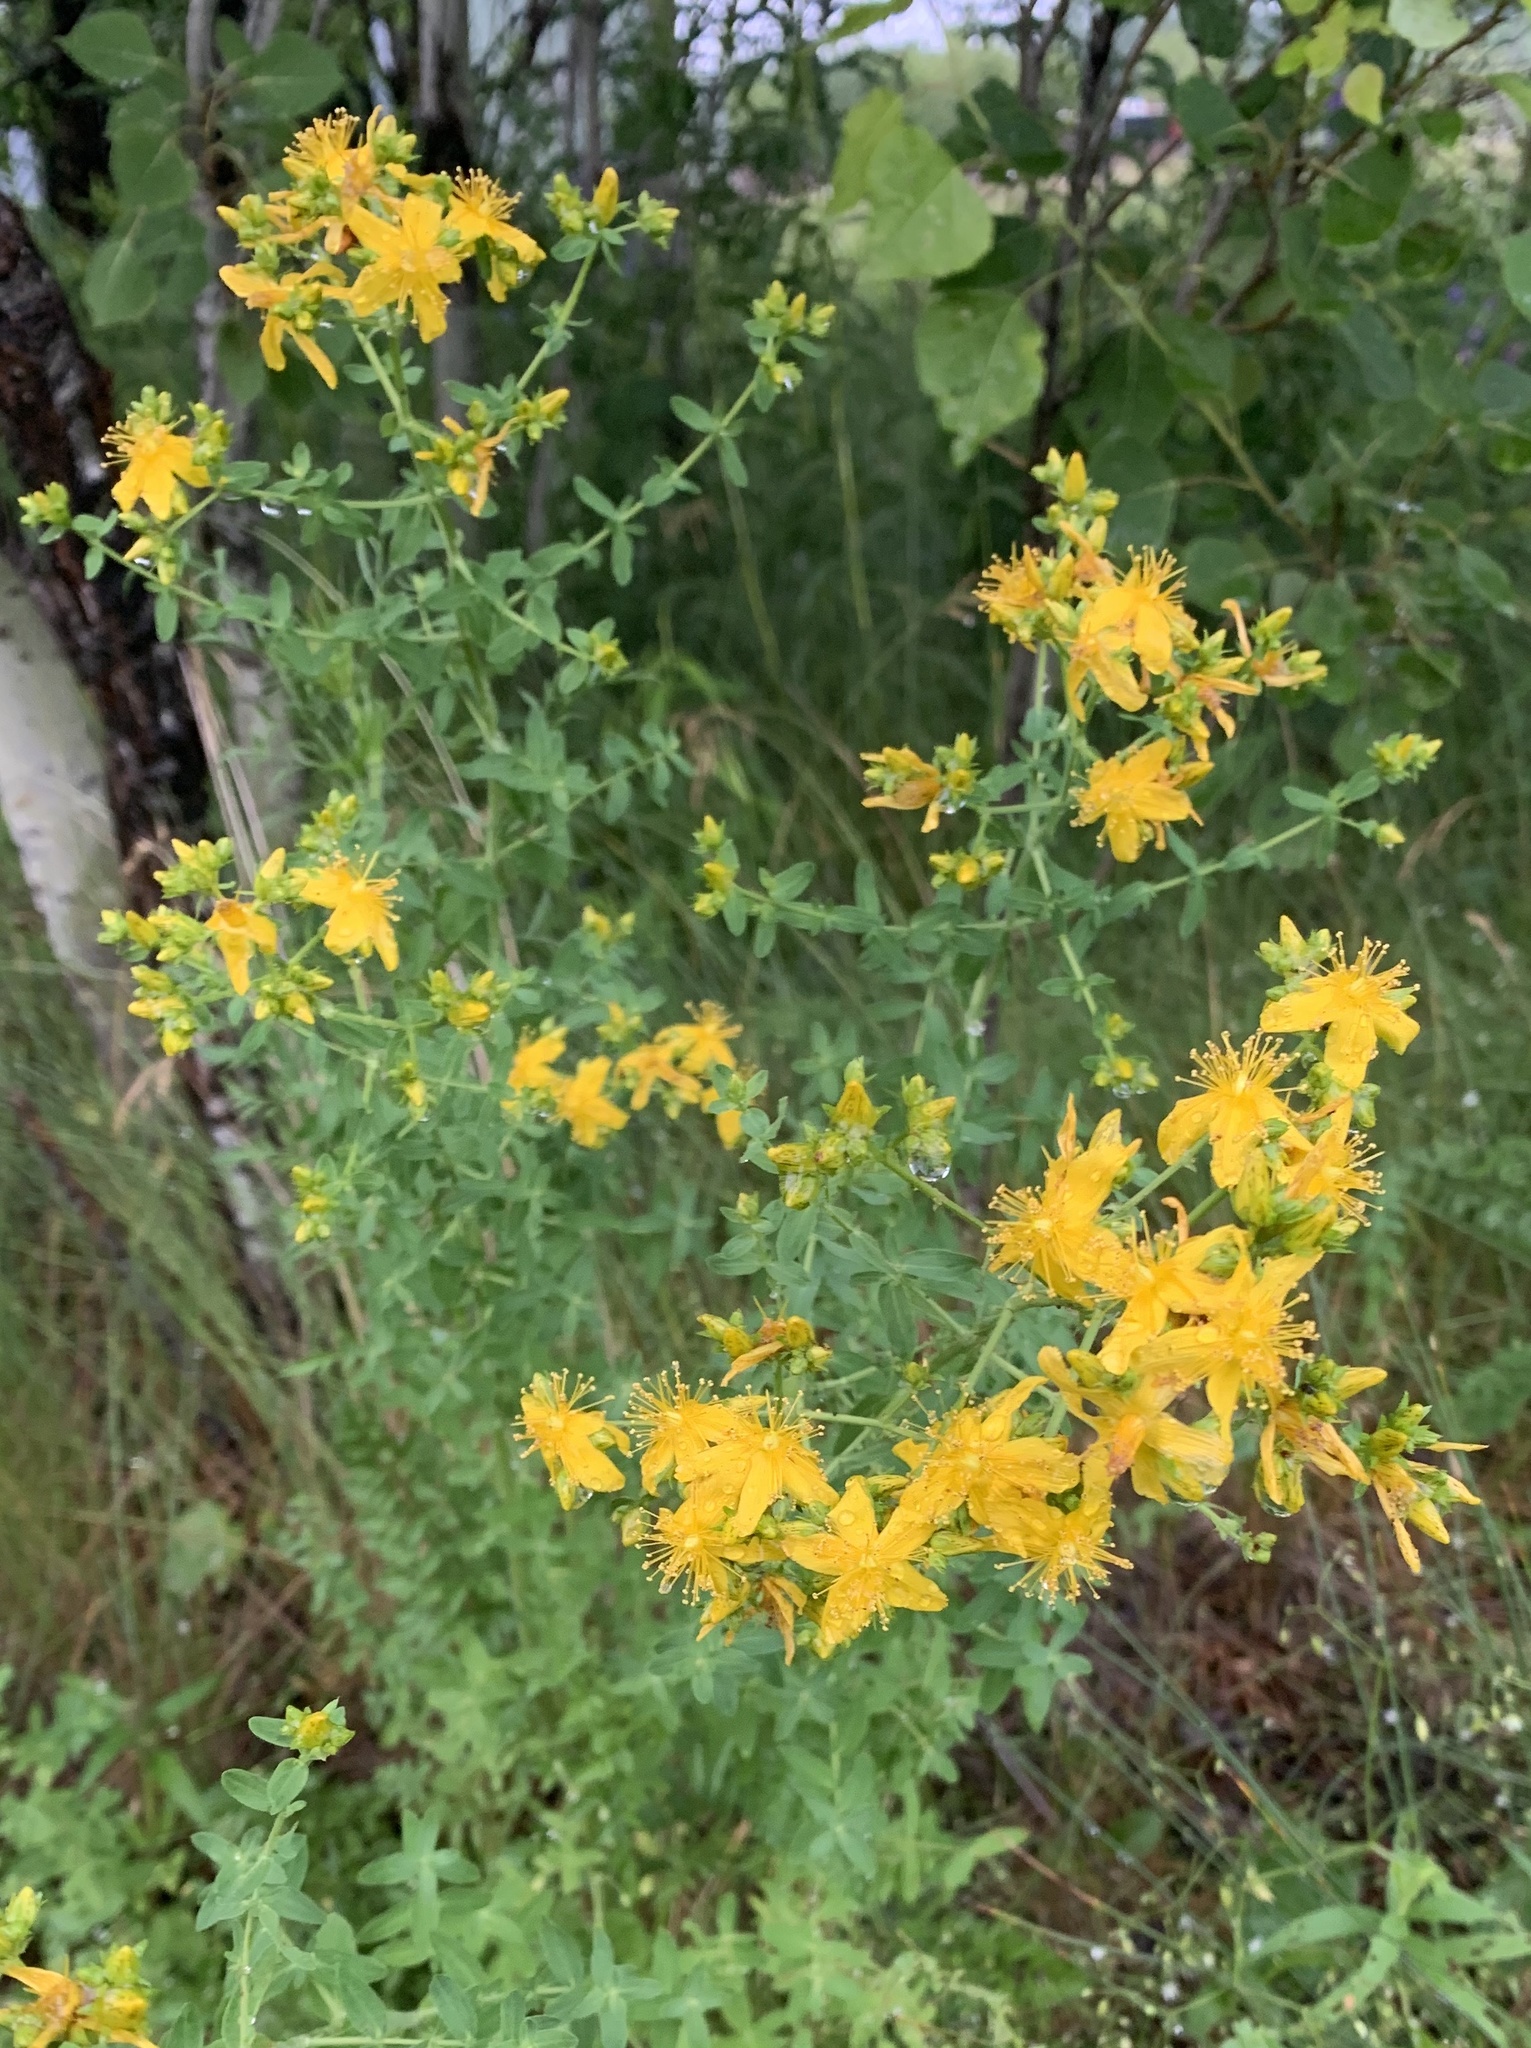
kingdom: Plantae
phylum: Tracheophyta
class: Magnoliopsida
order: Malpighiales
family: Hypericaceae
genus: Hypericum
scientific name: Hypericum perforatum
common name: Common st. johnswort
